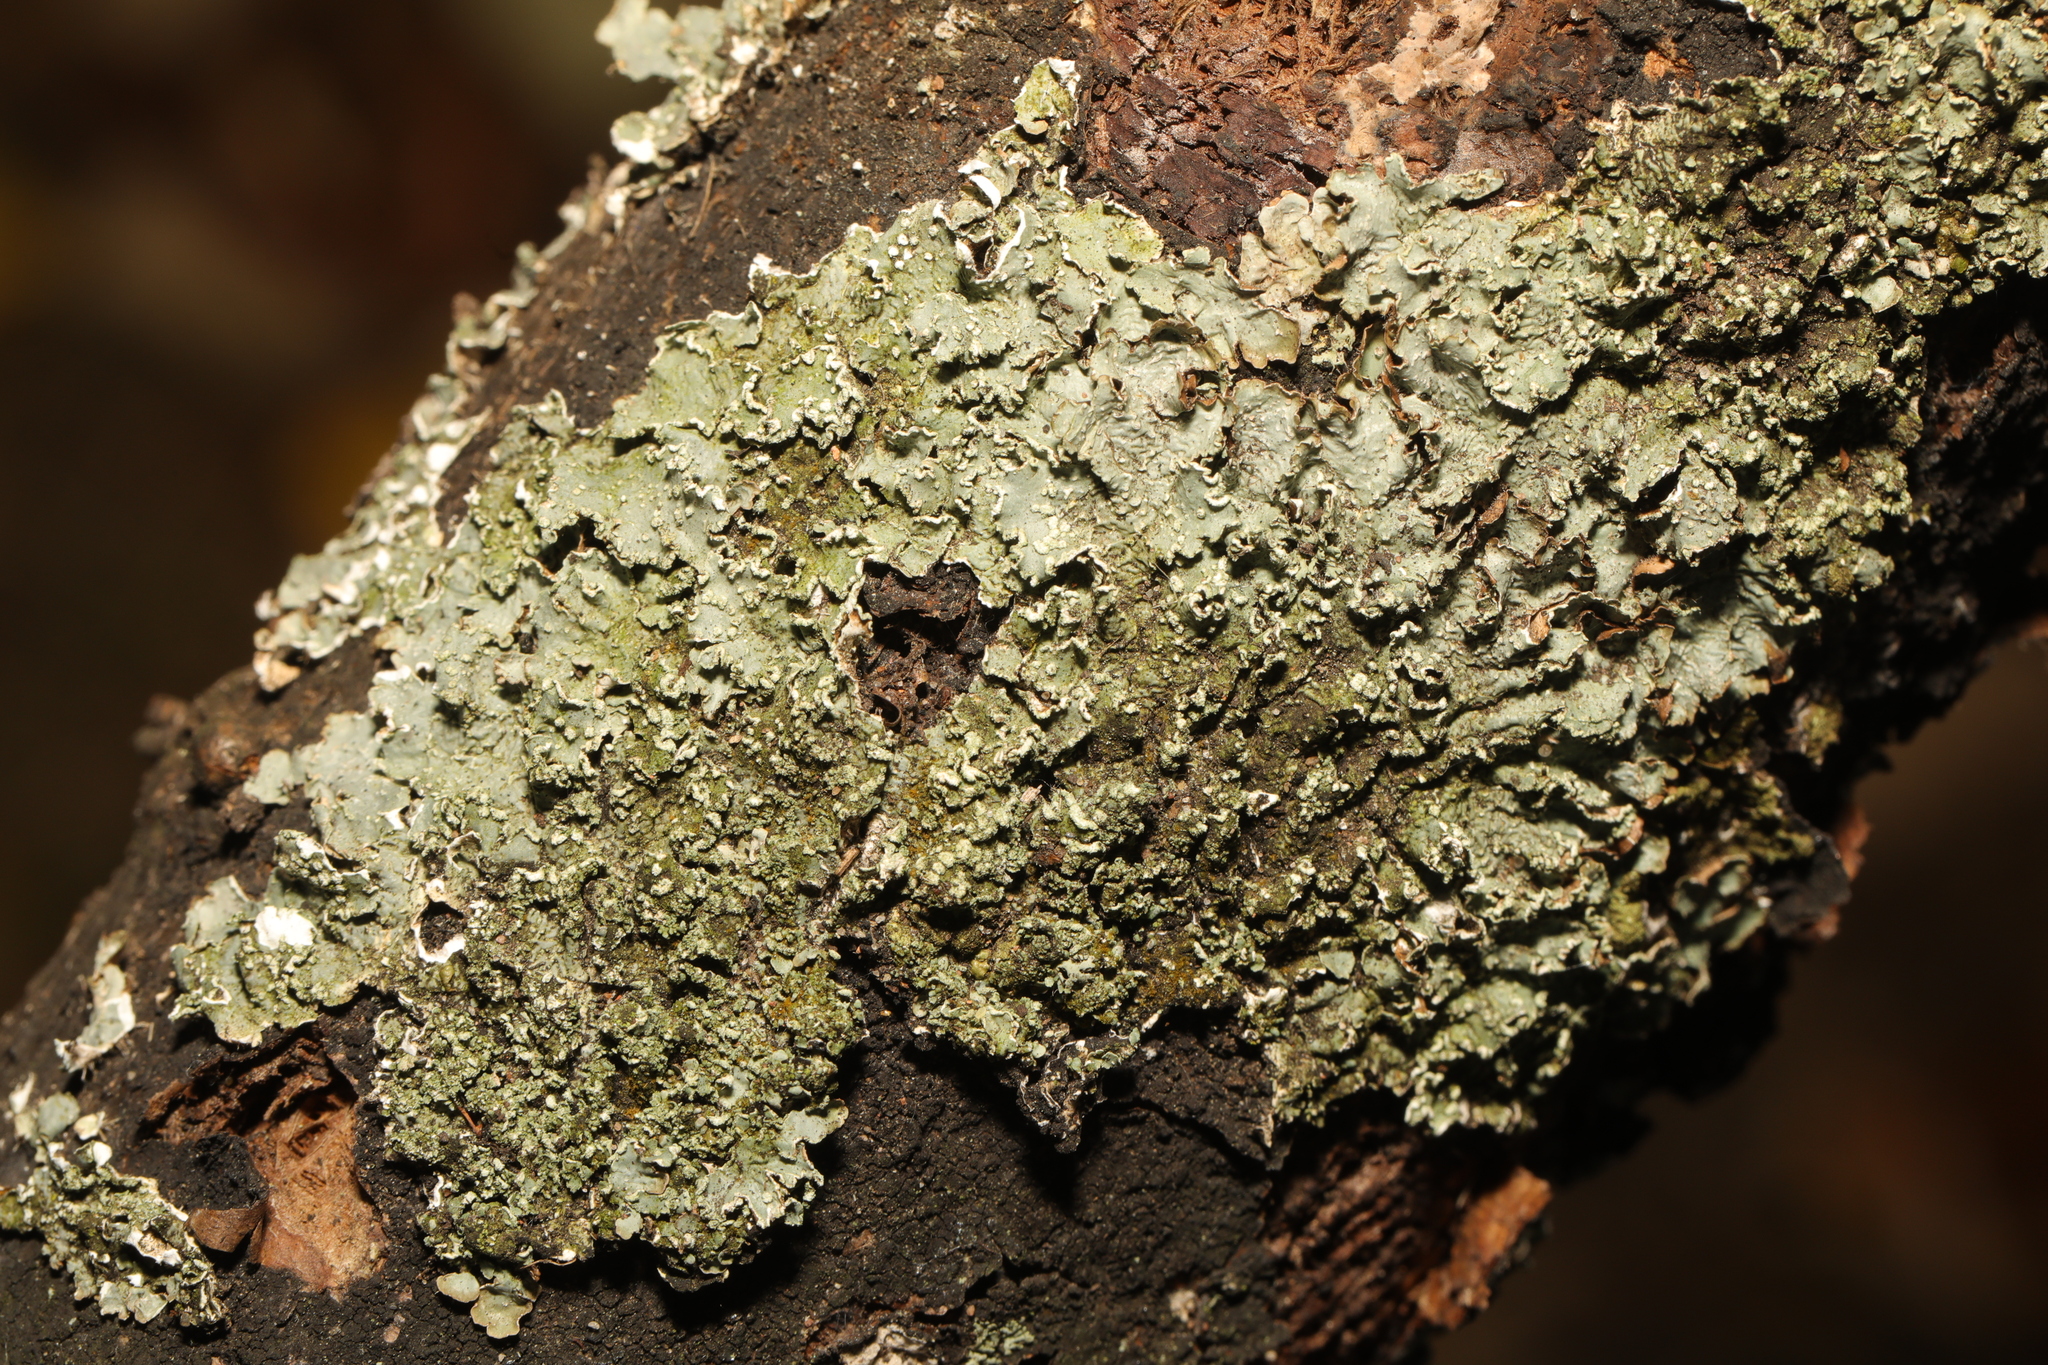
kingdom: Fungi
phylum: Ascomycota
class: Lecanoromycetes
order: Lecanorales
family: Parmeliaceae
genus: Punctelia
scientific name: Punctelia jeckeri
